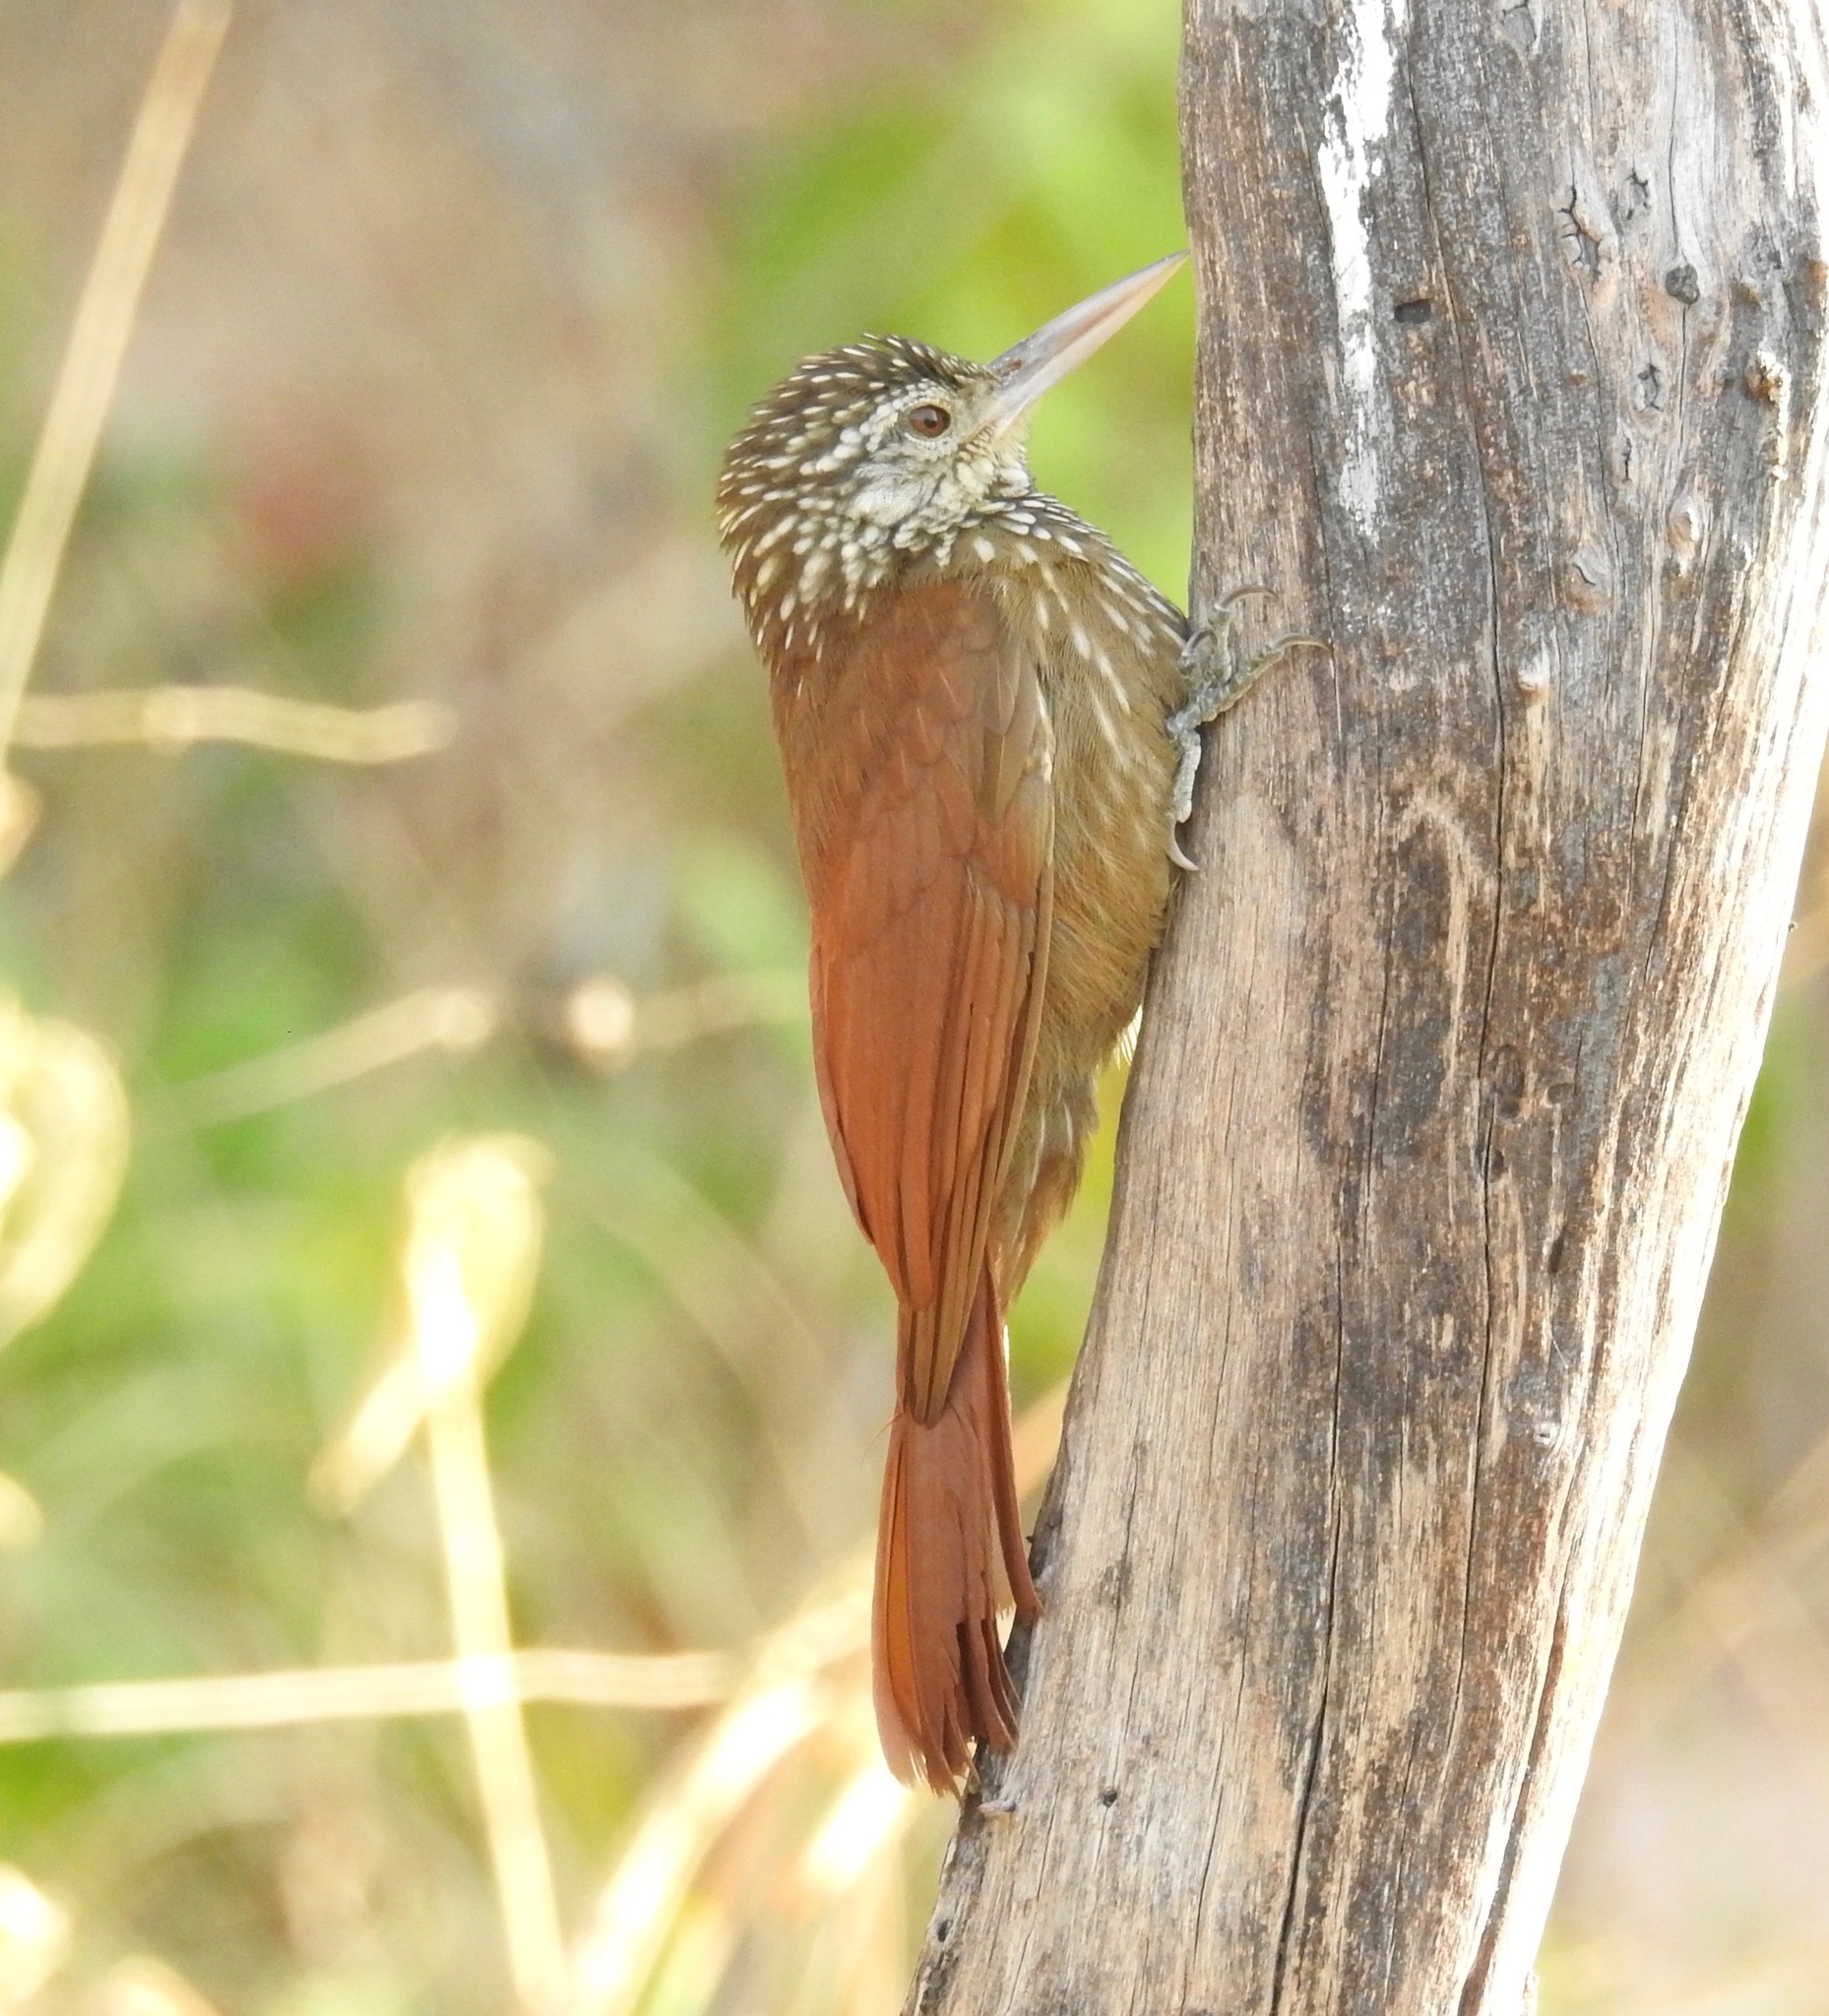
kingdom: Animalia
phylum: Chordata
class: Aves
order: Passeriformes
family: Furnariidae
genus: Xiphorhynchus
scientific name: Xiphorhynchus picus
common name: Straight-billed woodcreeper
